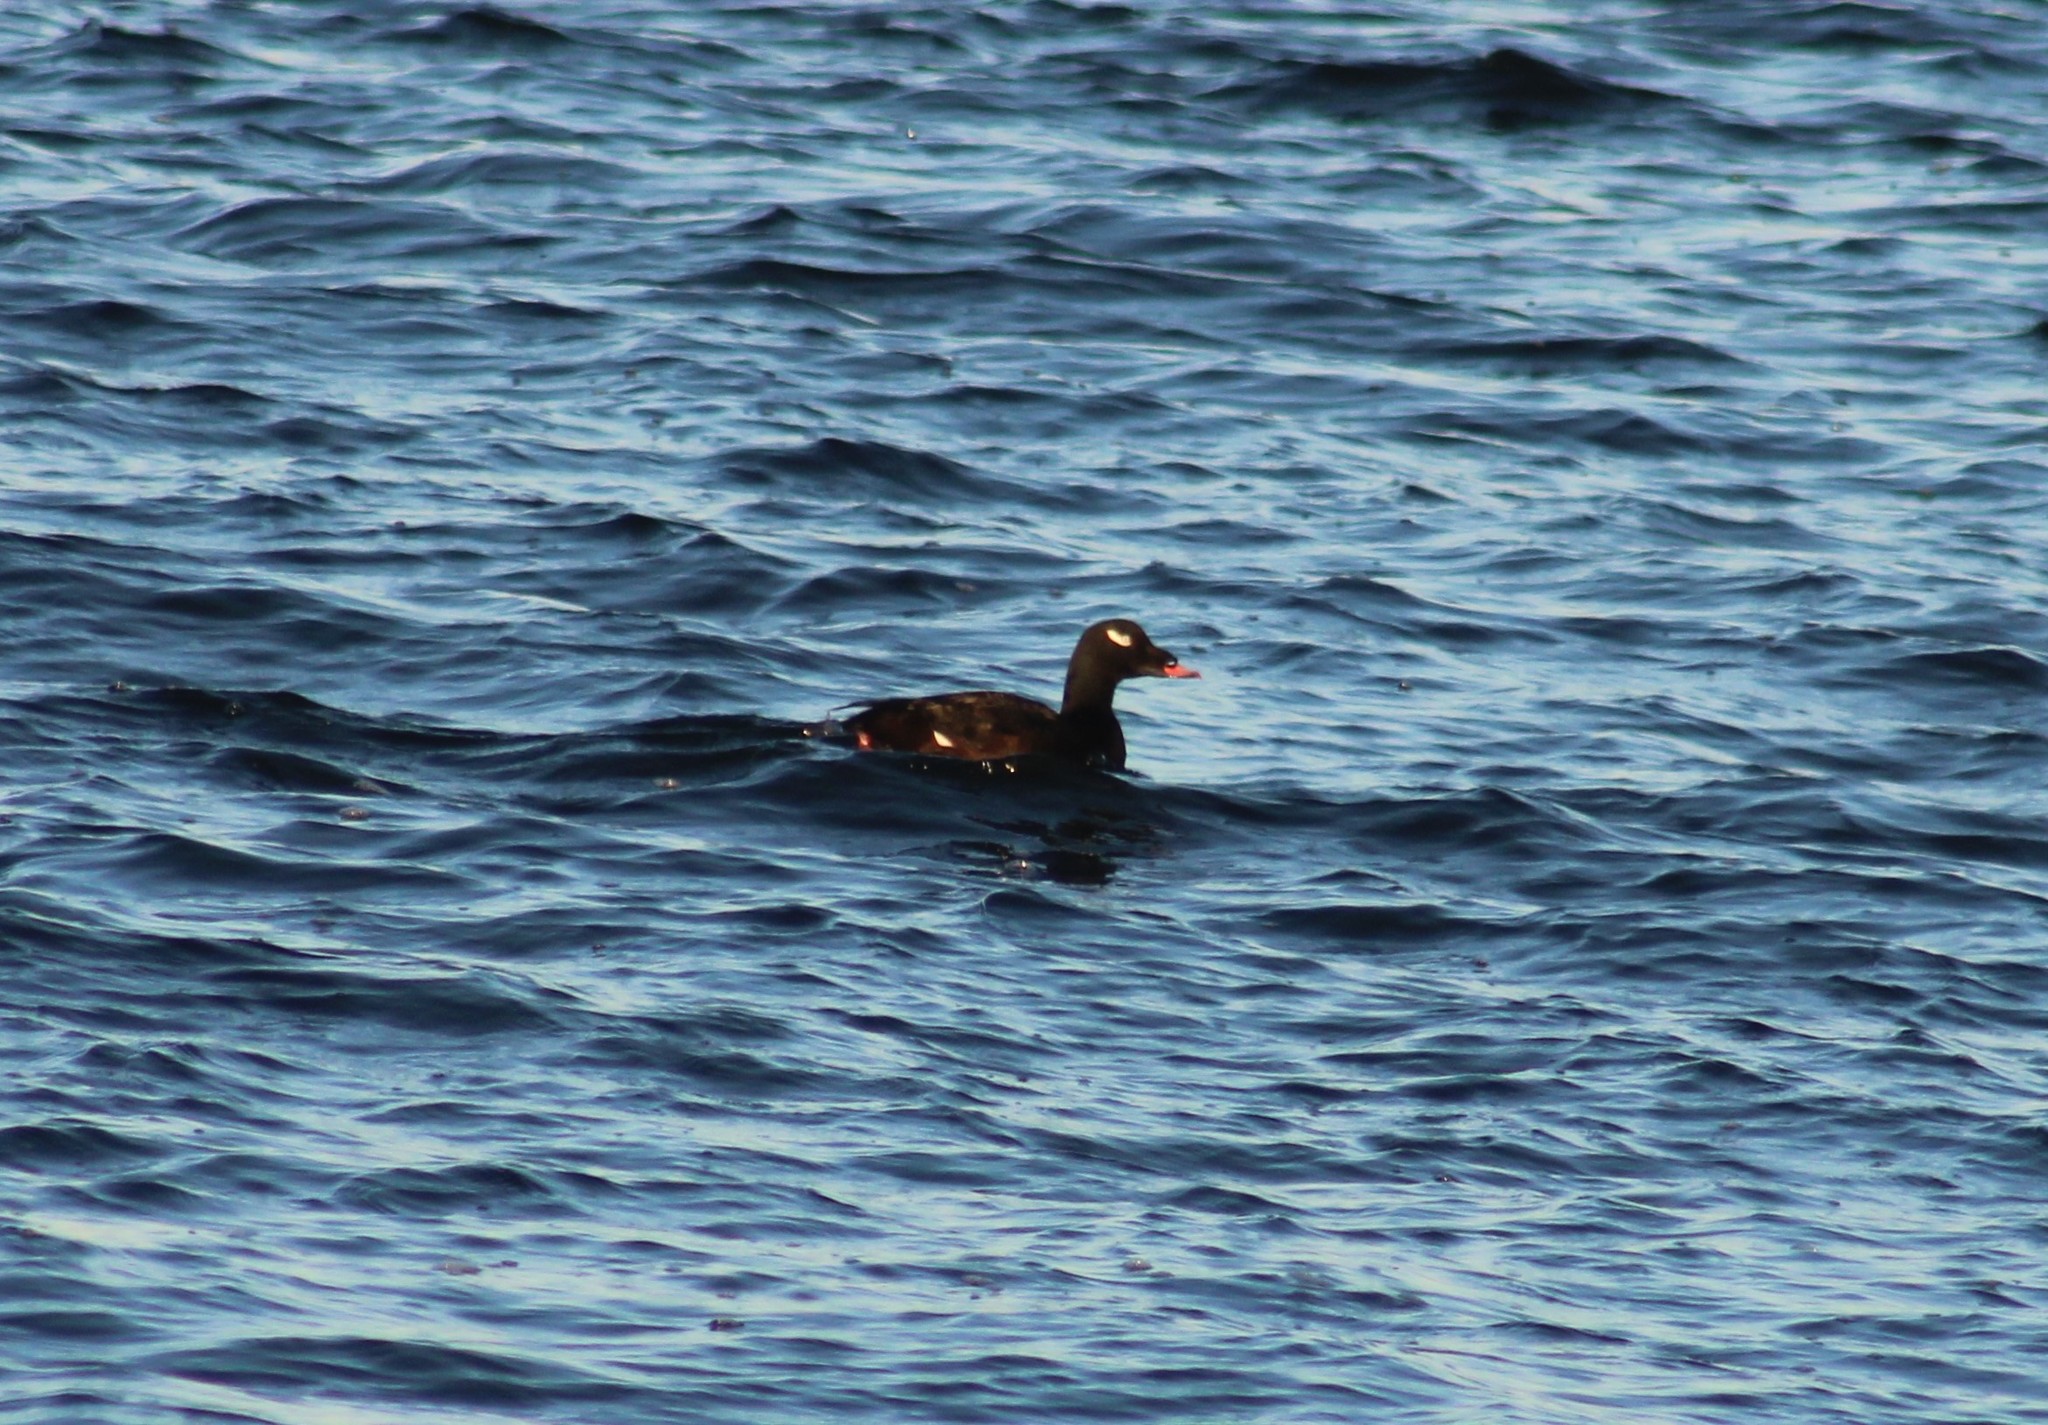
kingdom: Animalia
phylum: Chordata
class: Aves
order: Anseriformes
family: Anatidae
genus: Melanitta
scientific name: Melanitta deglandi
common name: White-winged scoter
